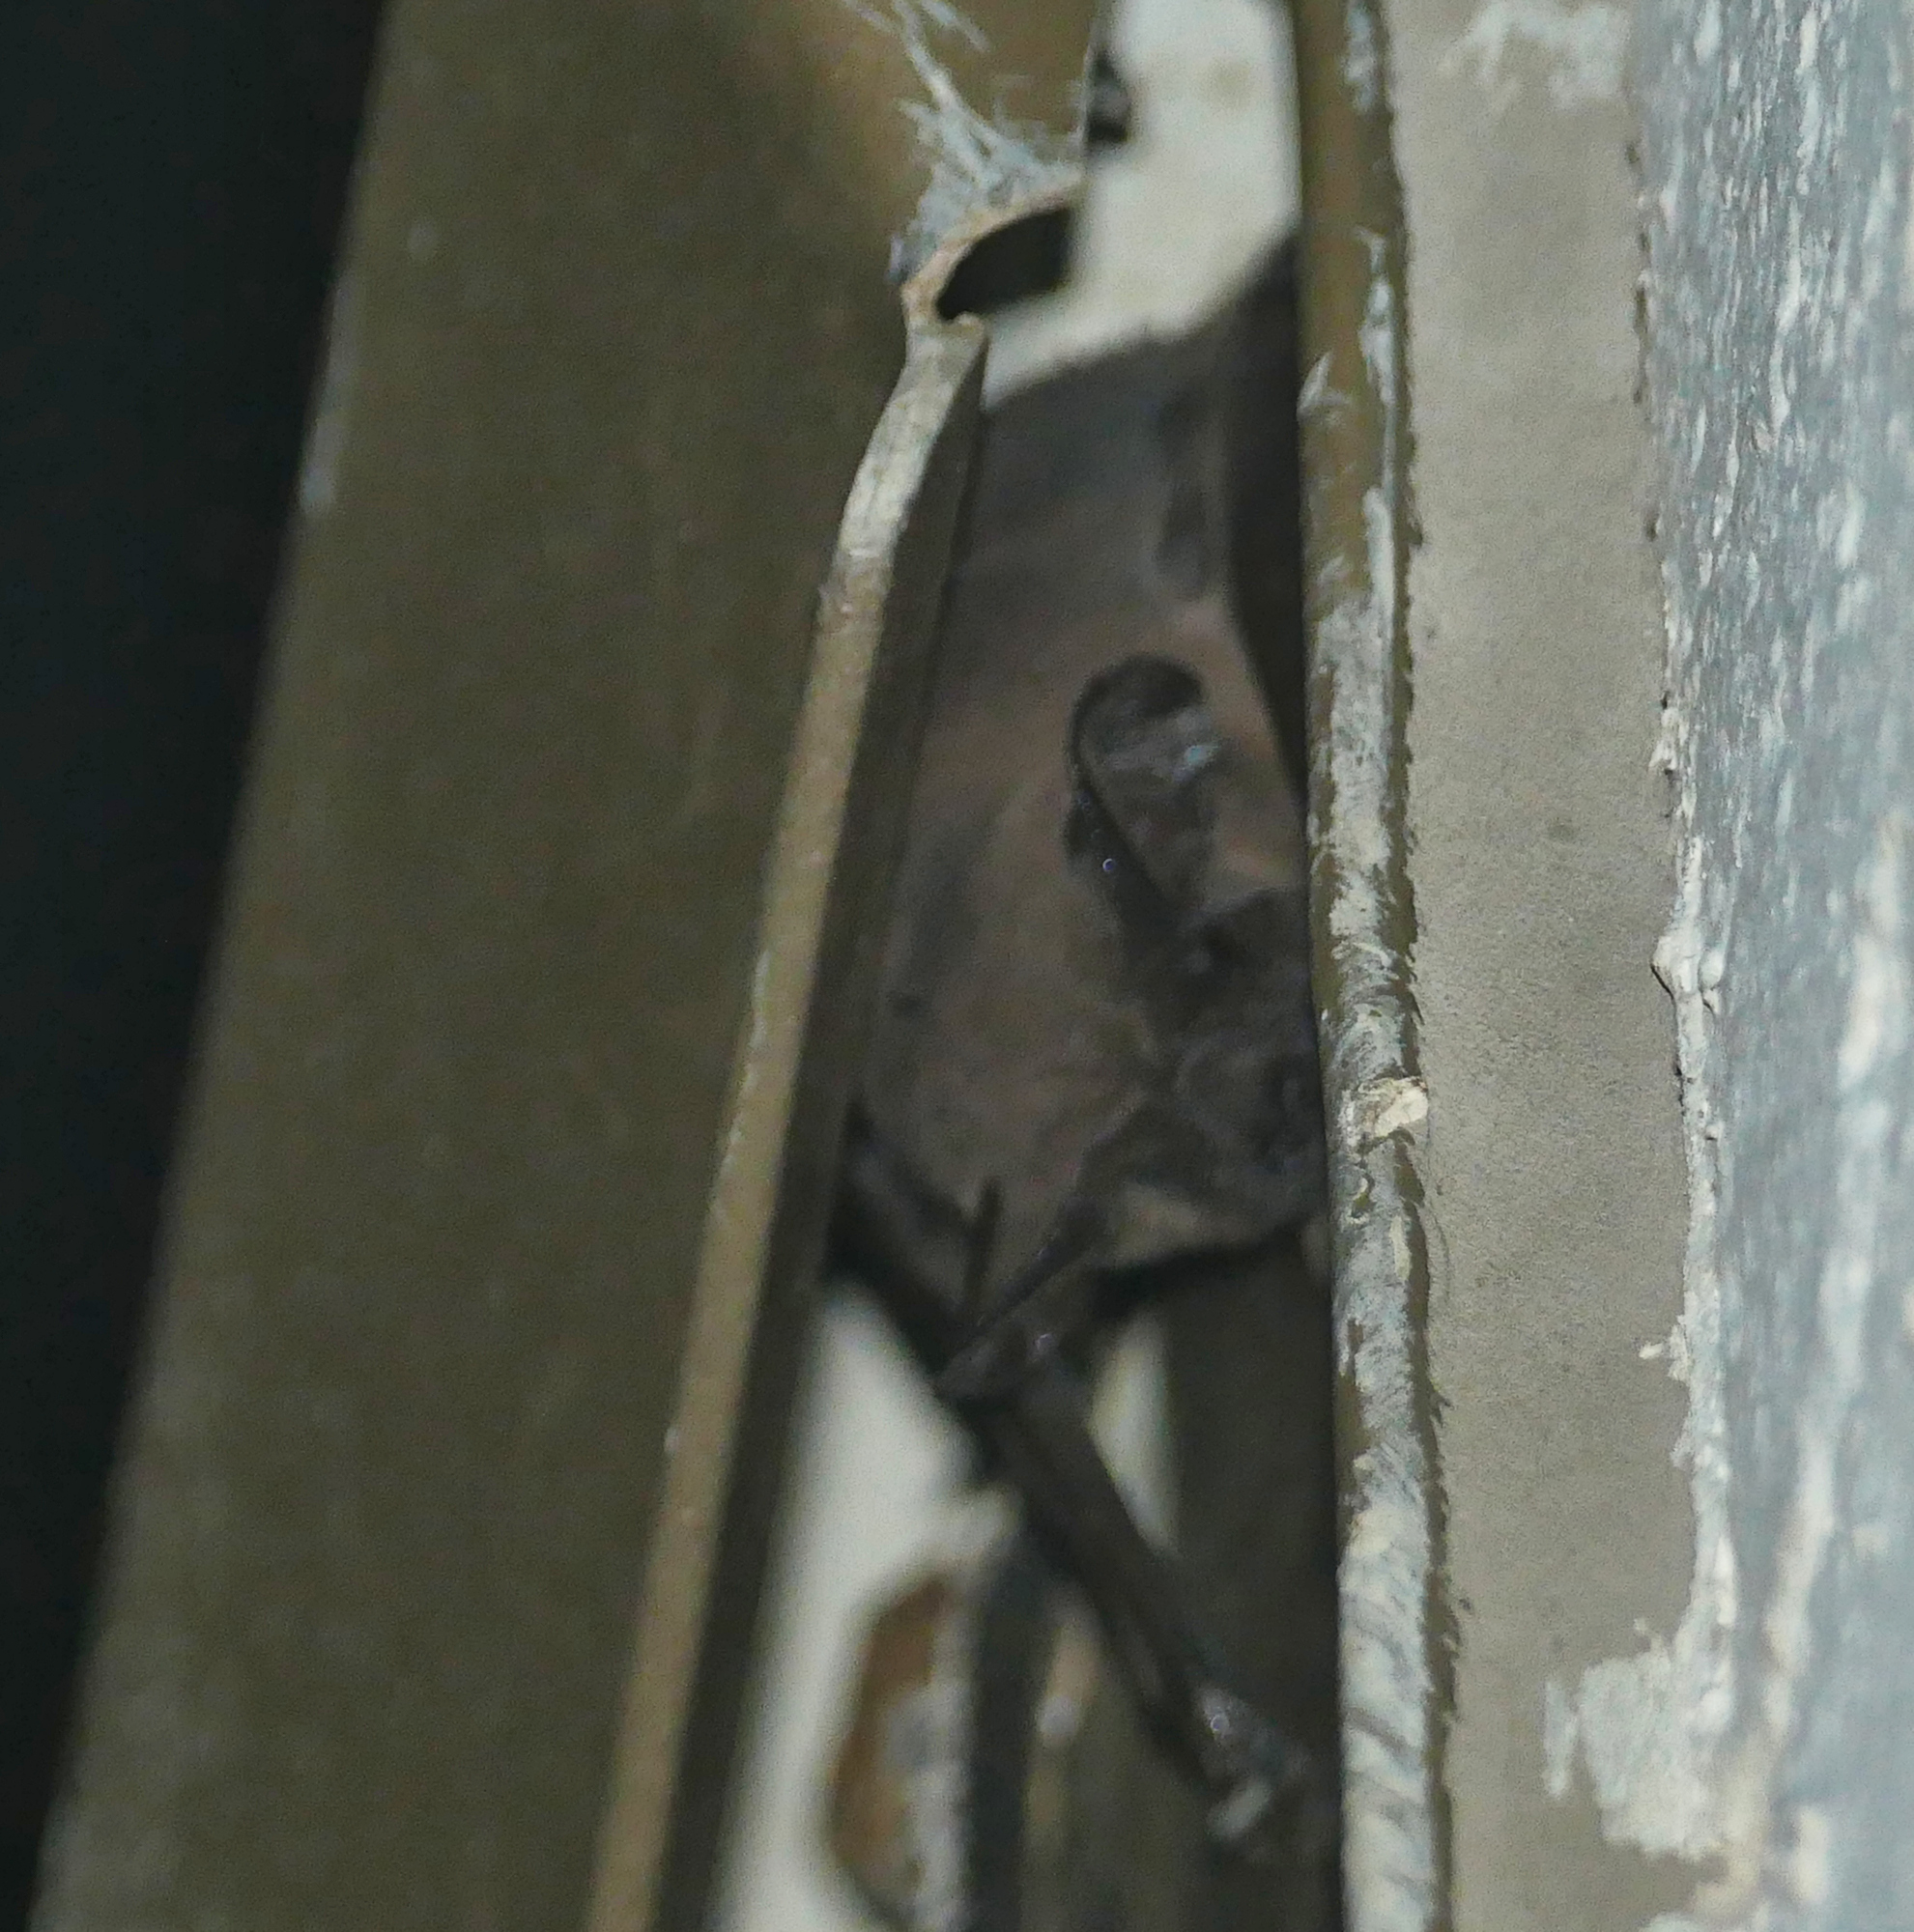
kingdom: Animalia
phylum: Chordata
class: Mammalia
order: Chiroptera
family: Molossidae
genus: Tadarida
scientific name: Tadarida brasiliensis
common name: Mexican free-tailed bat
